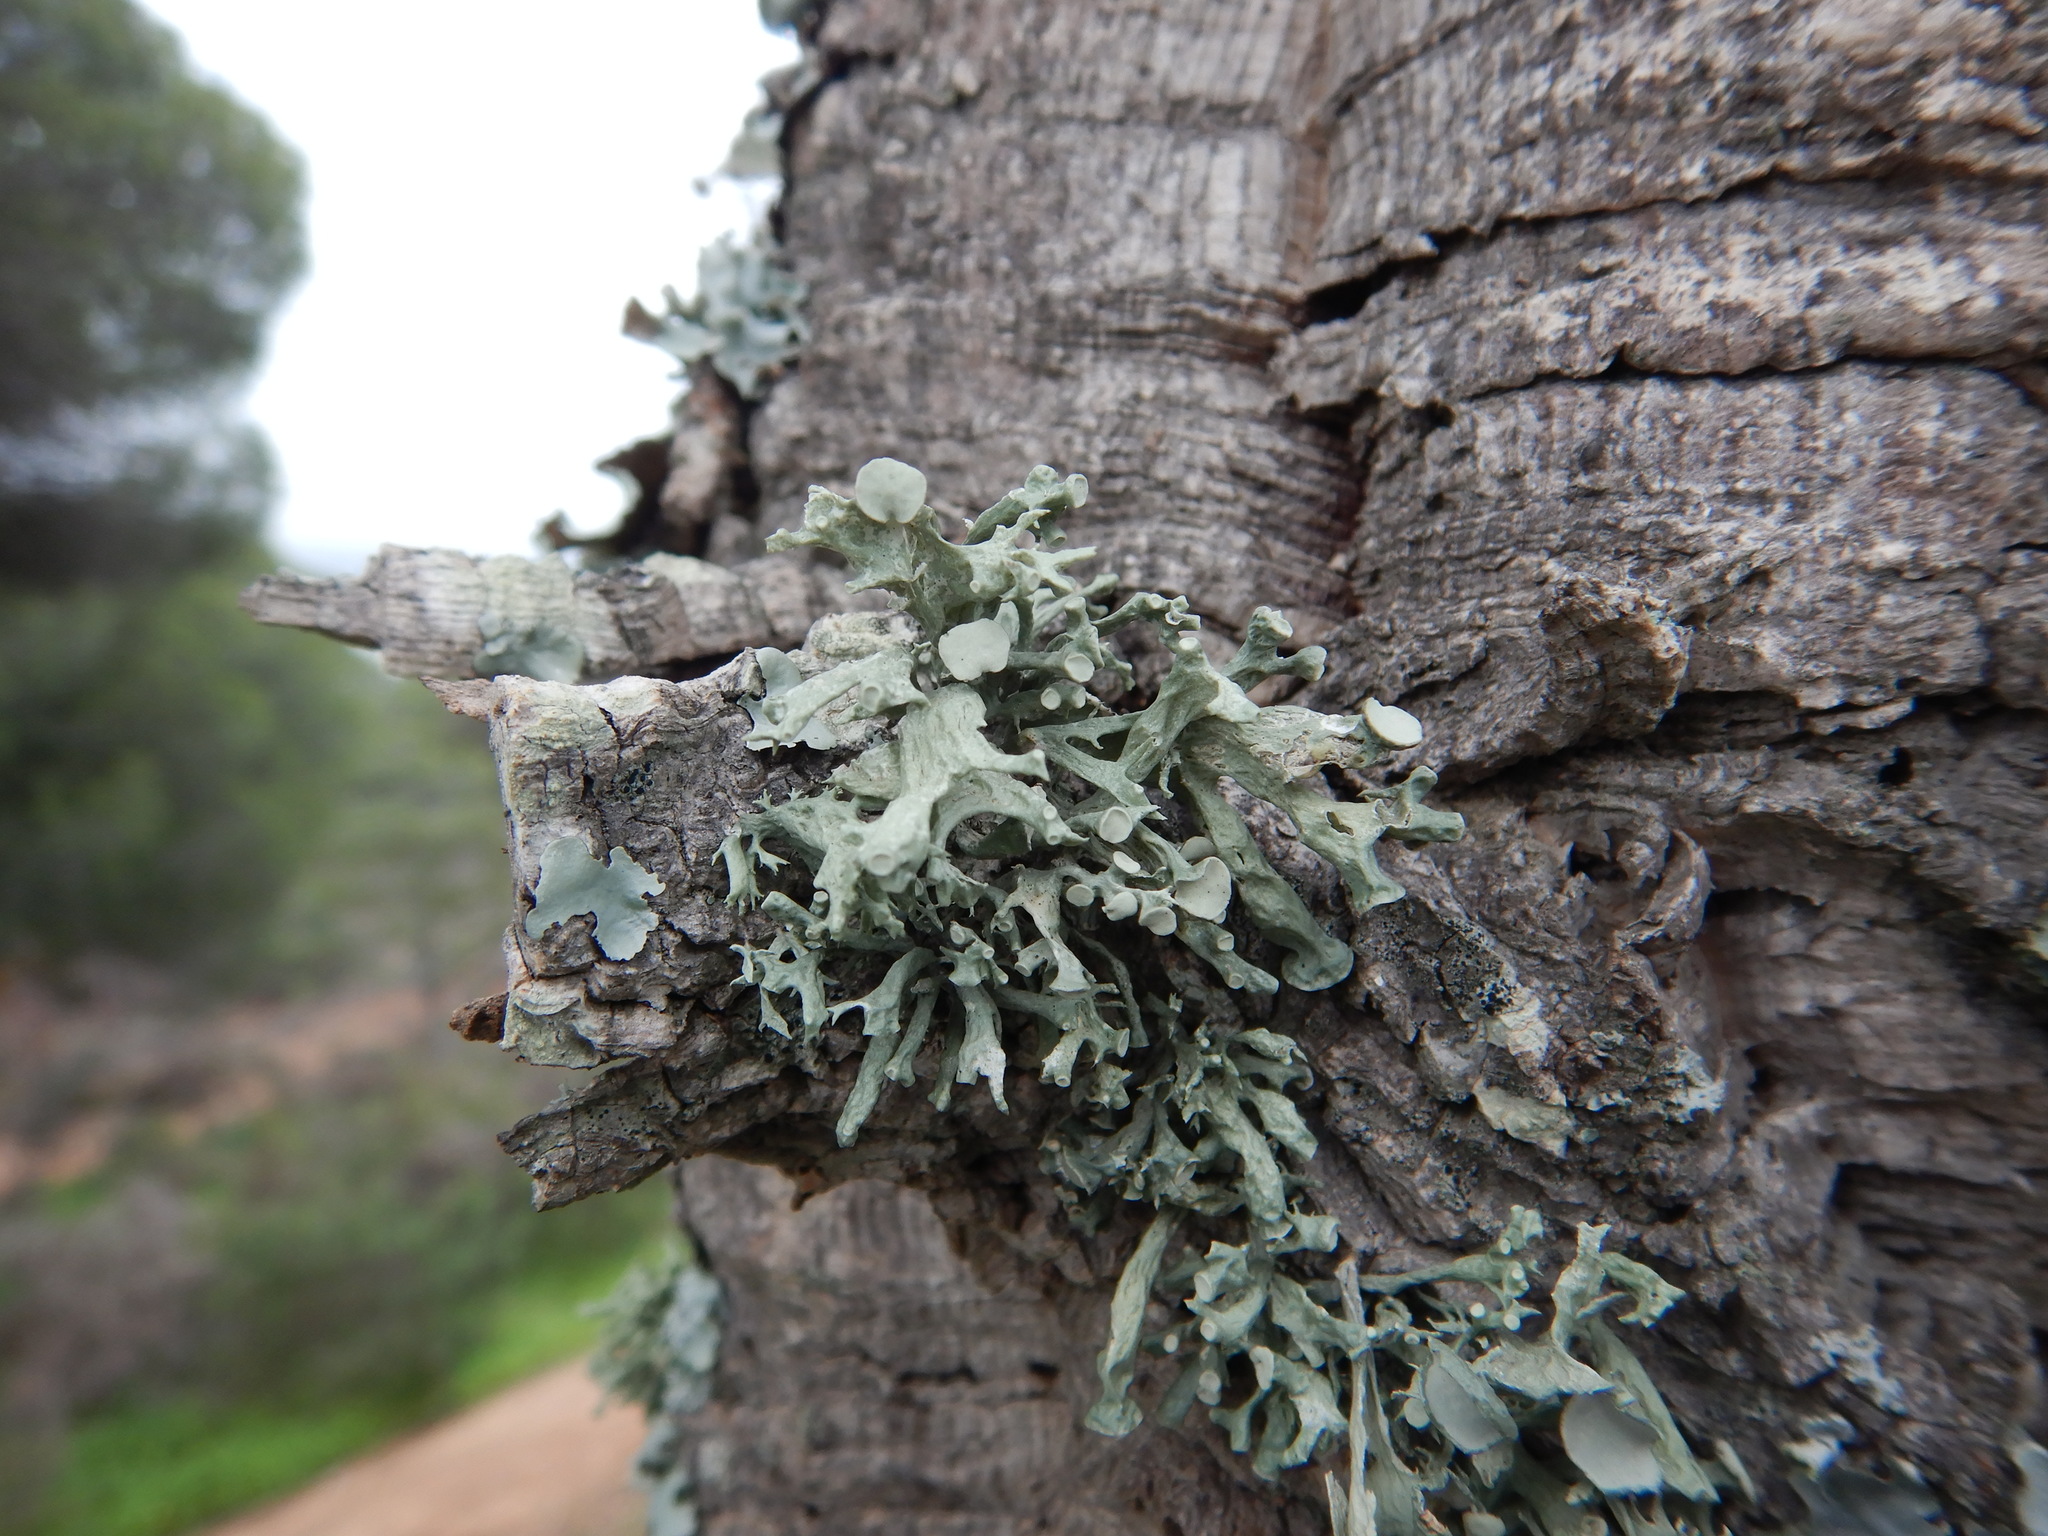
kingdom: Fungi
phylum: Ascomycota
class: Lecanoromycetes
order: Lecanorales
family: Ramalinaceae
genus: Ramalina
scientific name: Ramalina fastigiata
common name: Dotted ribbon lichen
